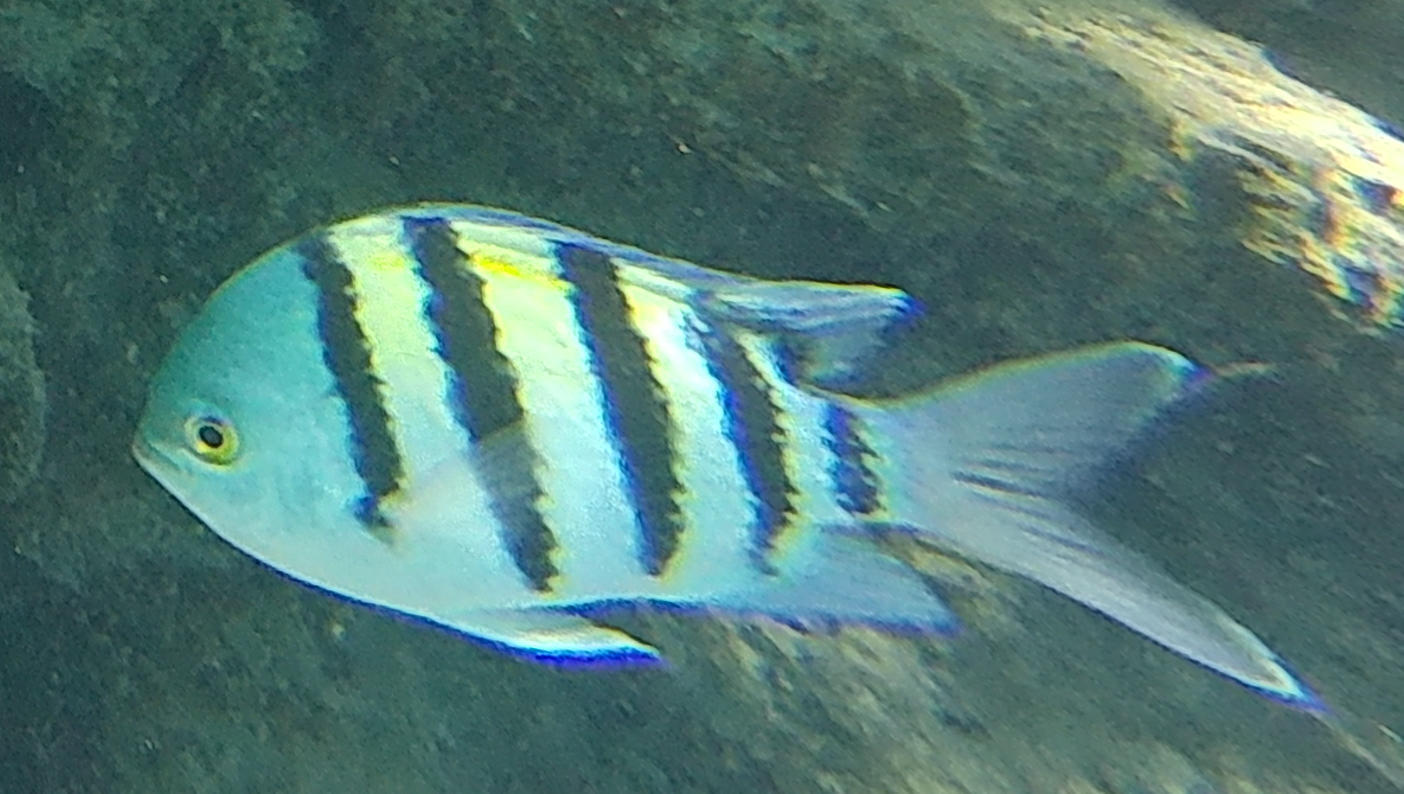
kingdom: Animalia
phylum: Chordata
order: Perciformes
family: Pomacentridae
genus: Abudefduf
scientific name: Abudefduf vaigiensis
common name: Indo-pacific sergeant
